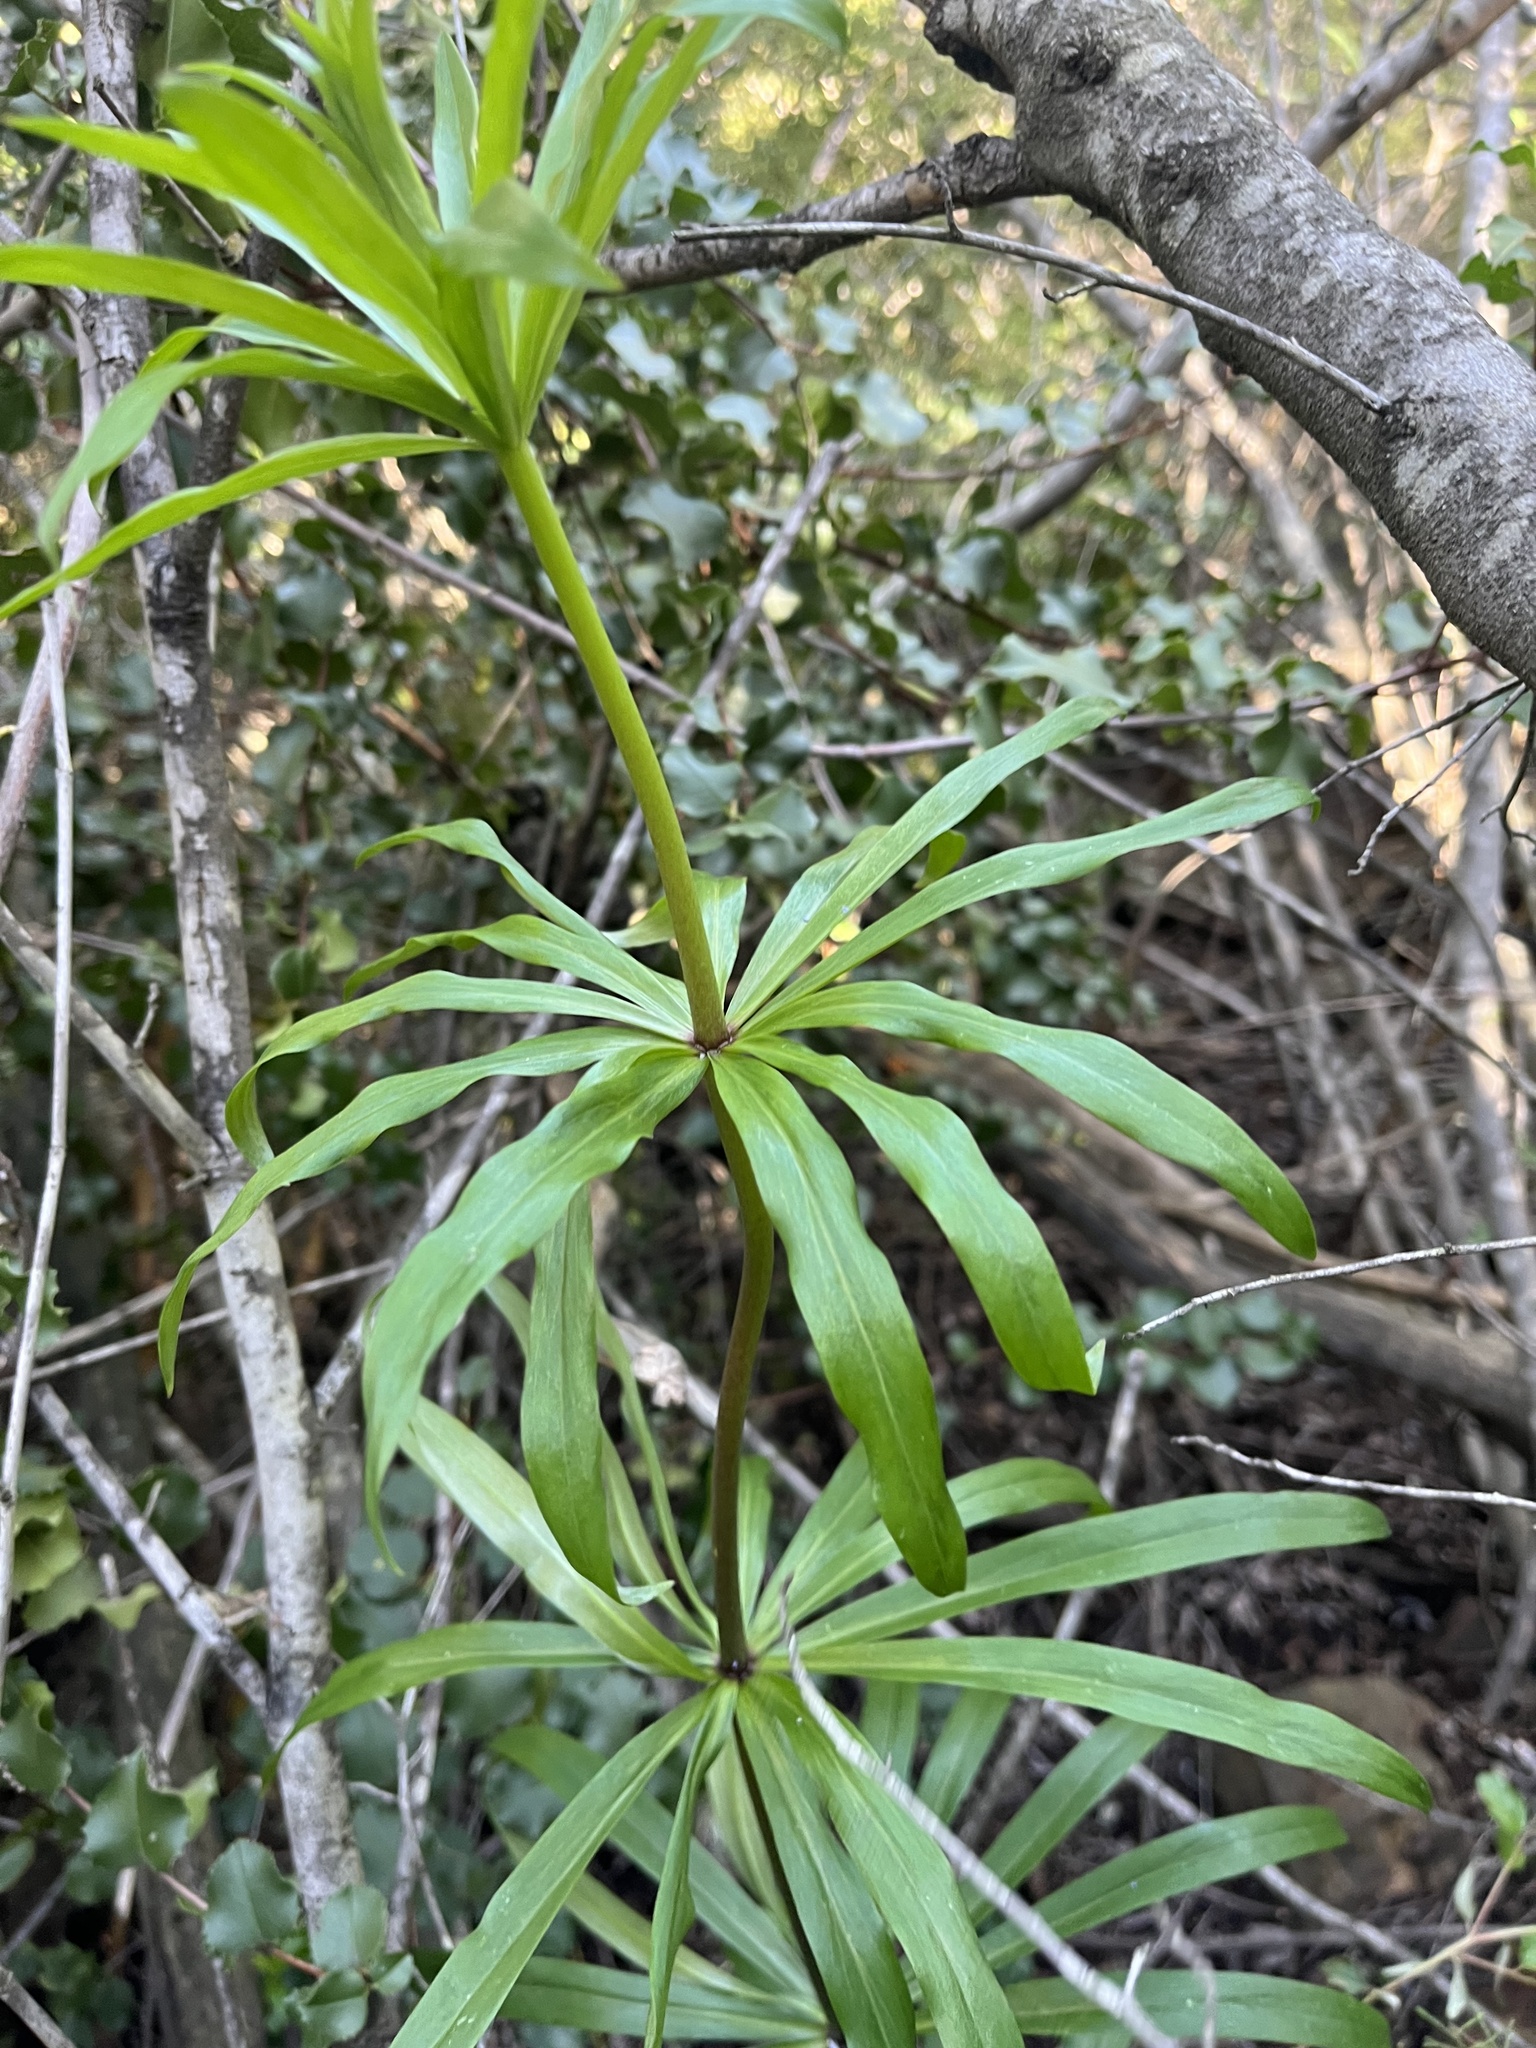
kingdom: Plantae
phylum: Tracheophyta
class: Liliopsida
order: Liliales
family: Liliaceae
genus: Lilium
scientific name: Lilium humboldtii
